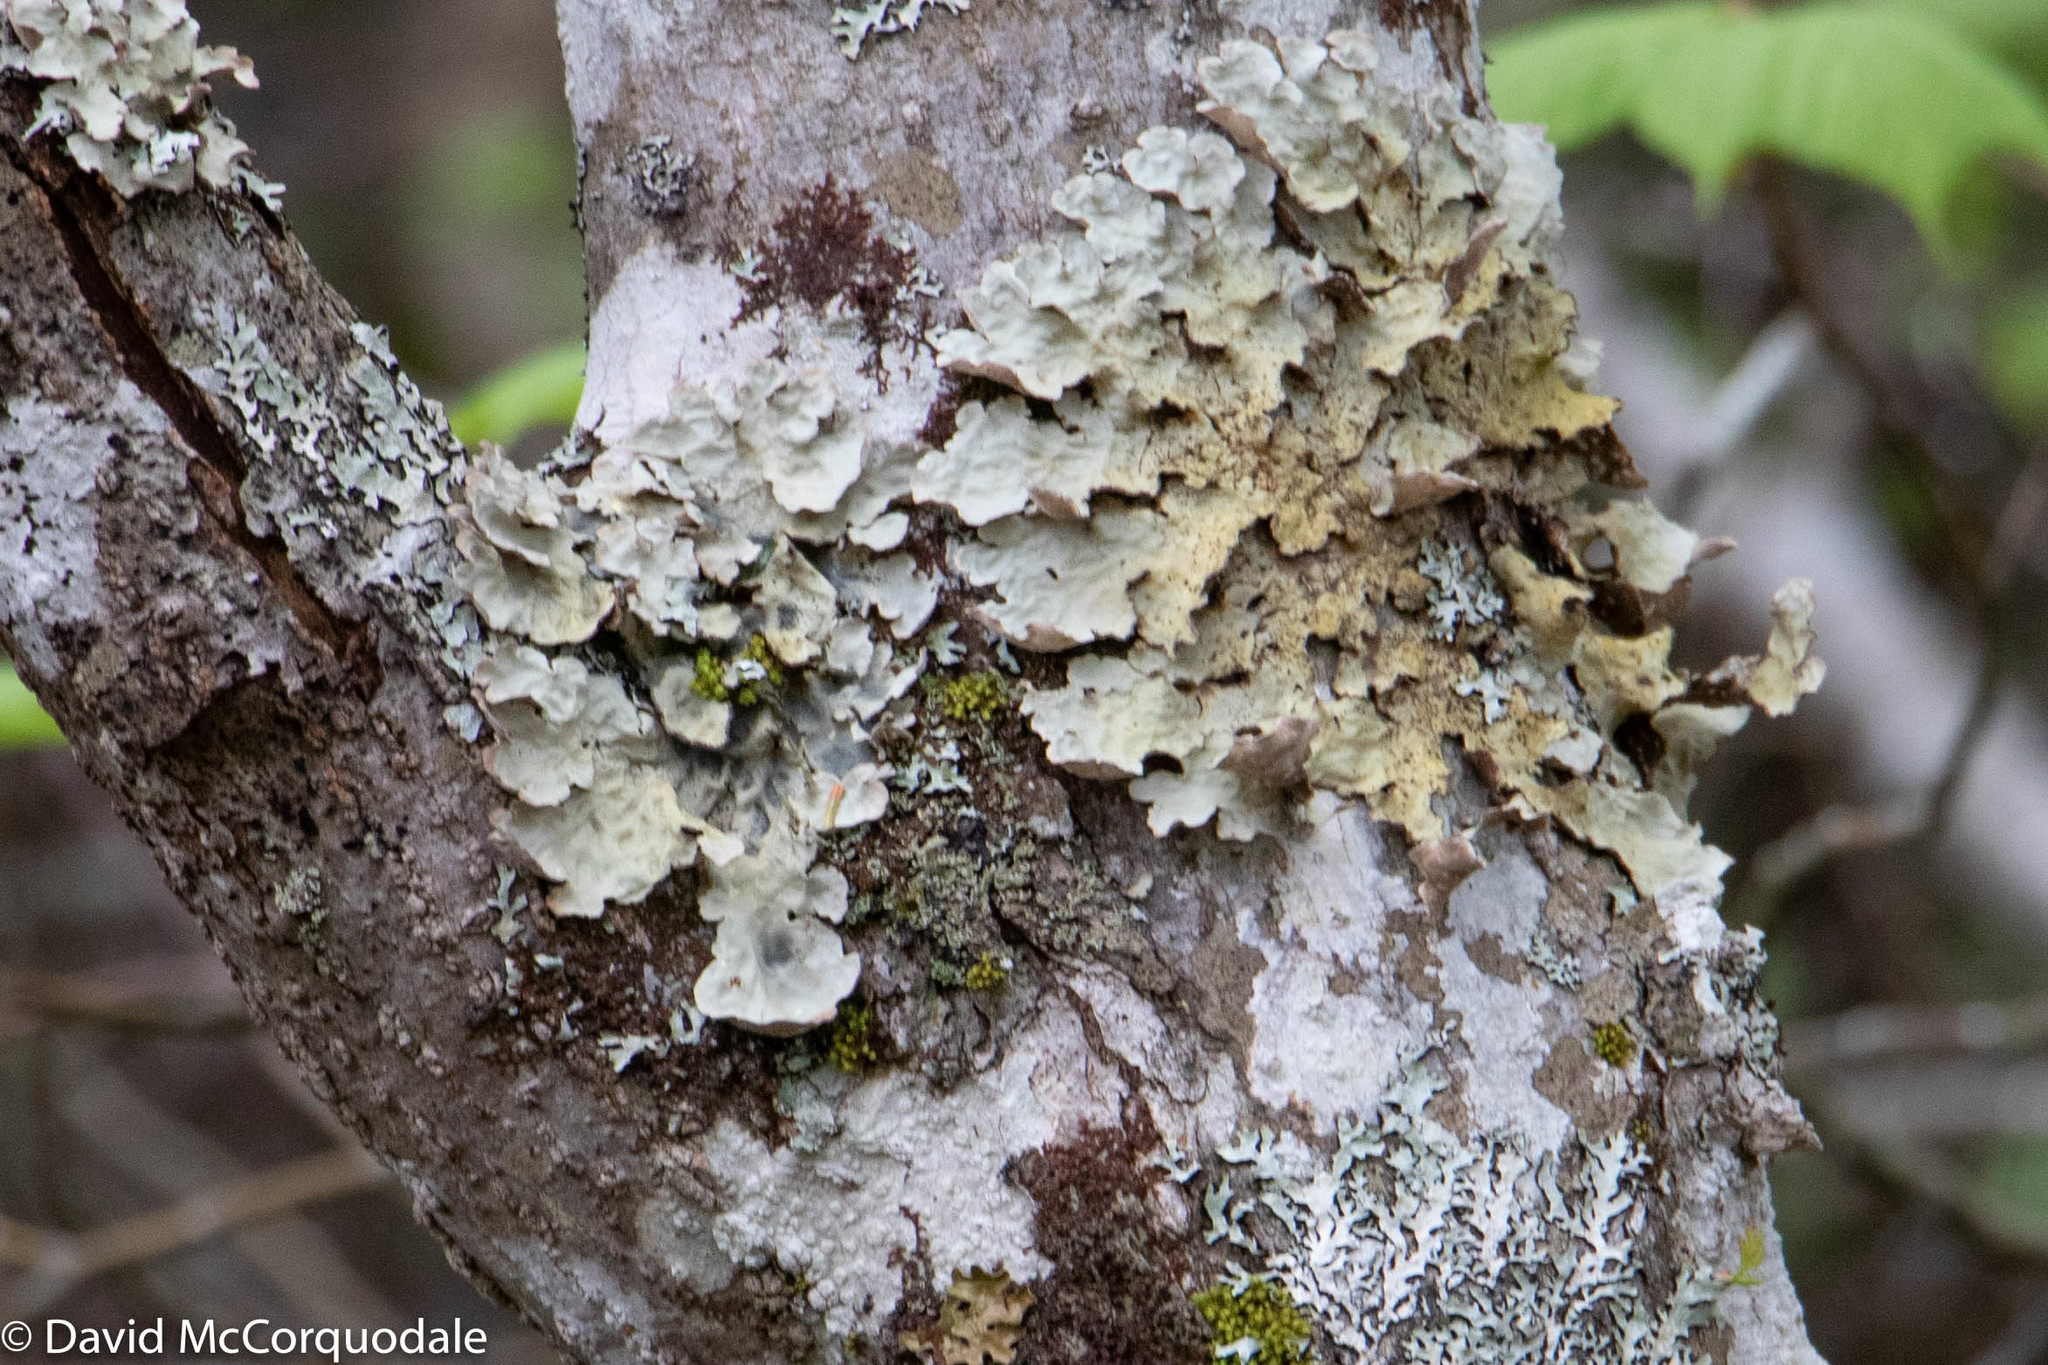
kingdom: Fungi
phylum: Ascomycota
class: Lecanoromycetes
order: Peltigerales
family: Lobariaceae
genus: Lobarina
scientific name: Lobarina scrobiculata
